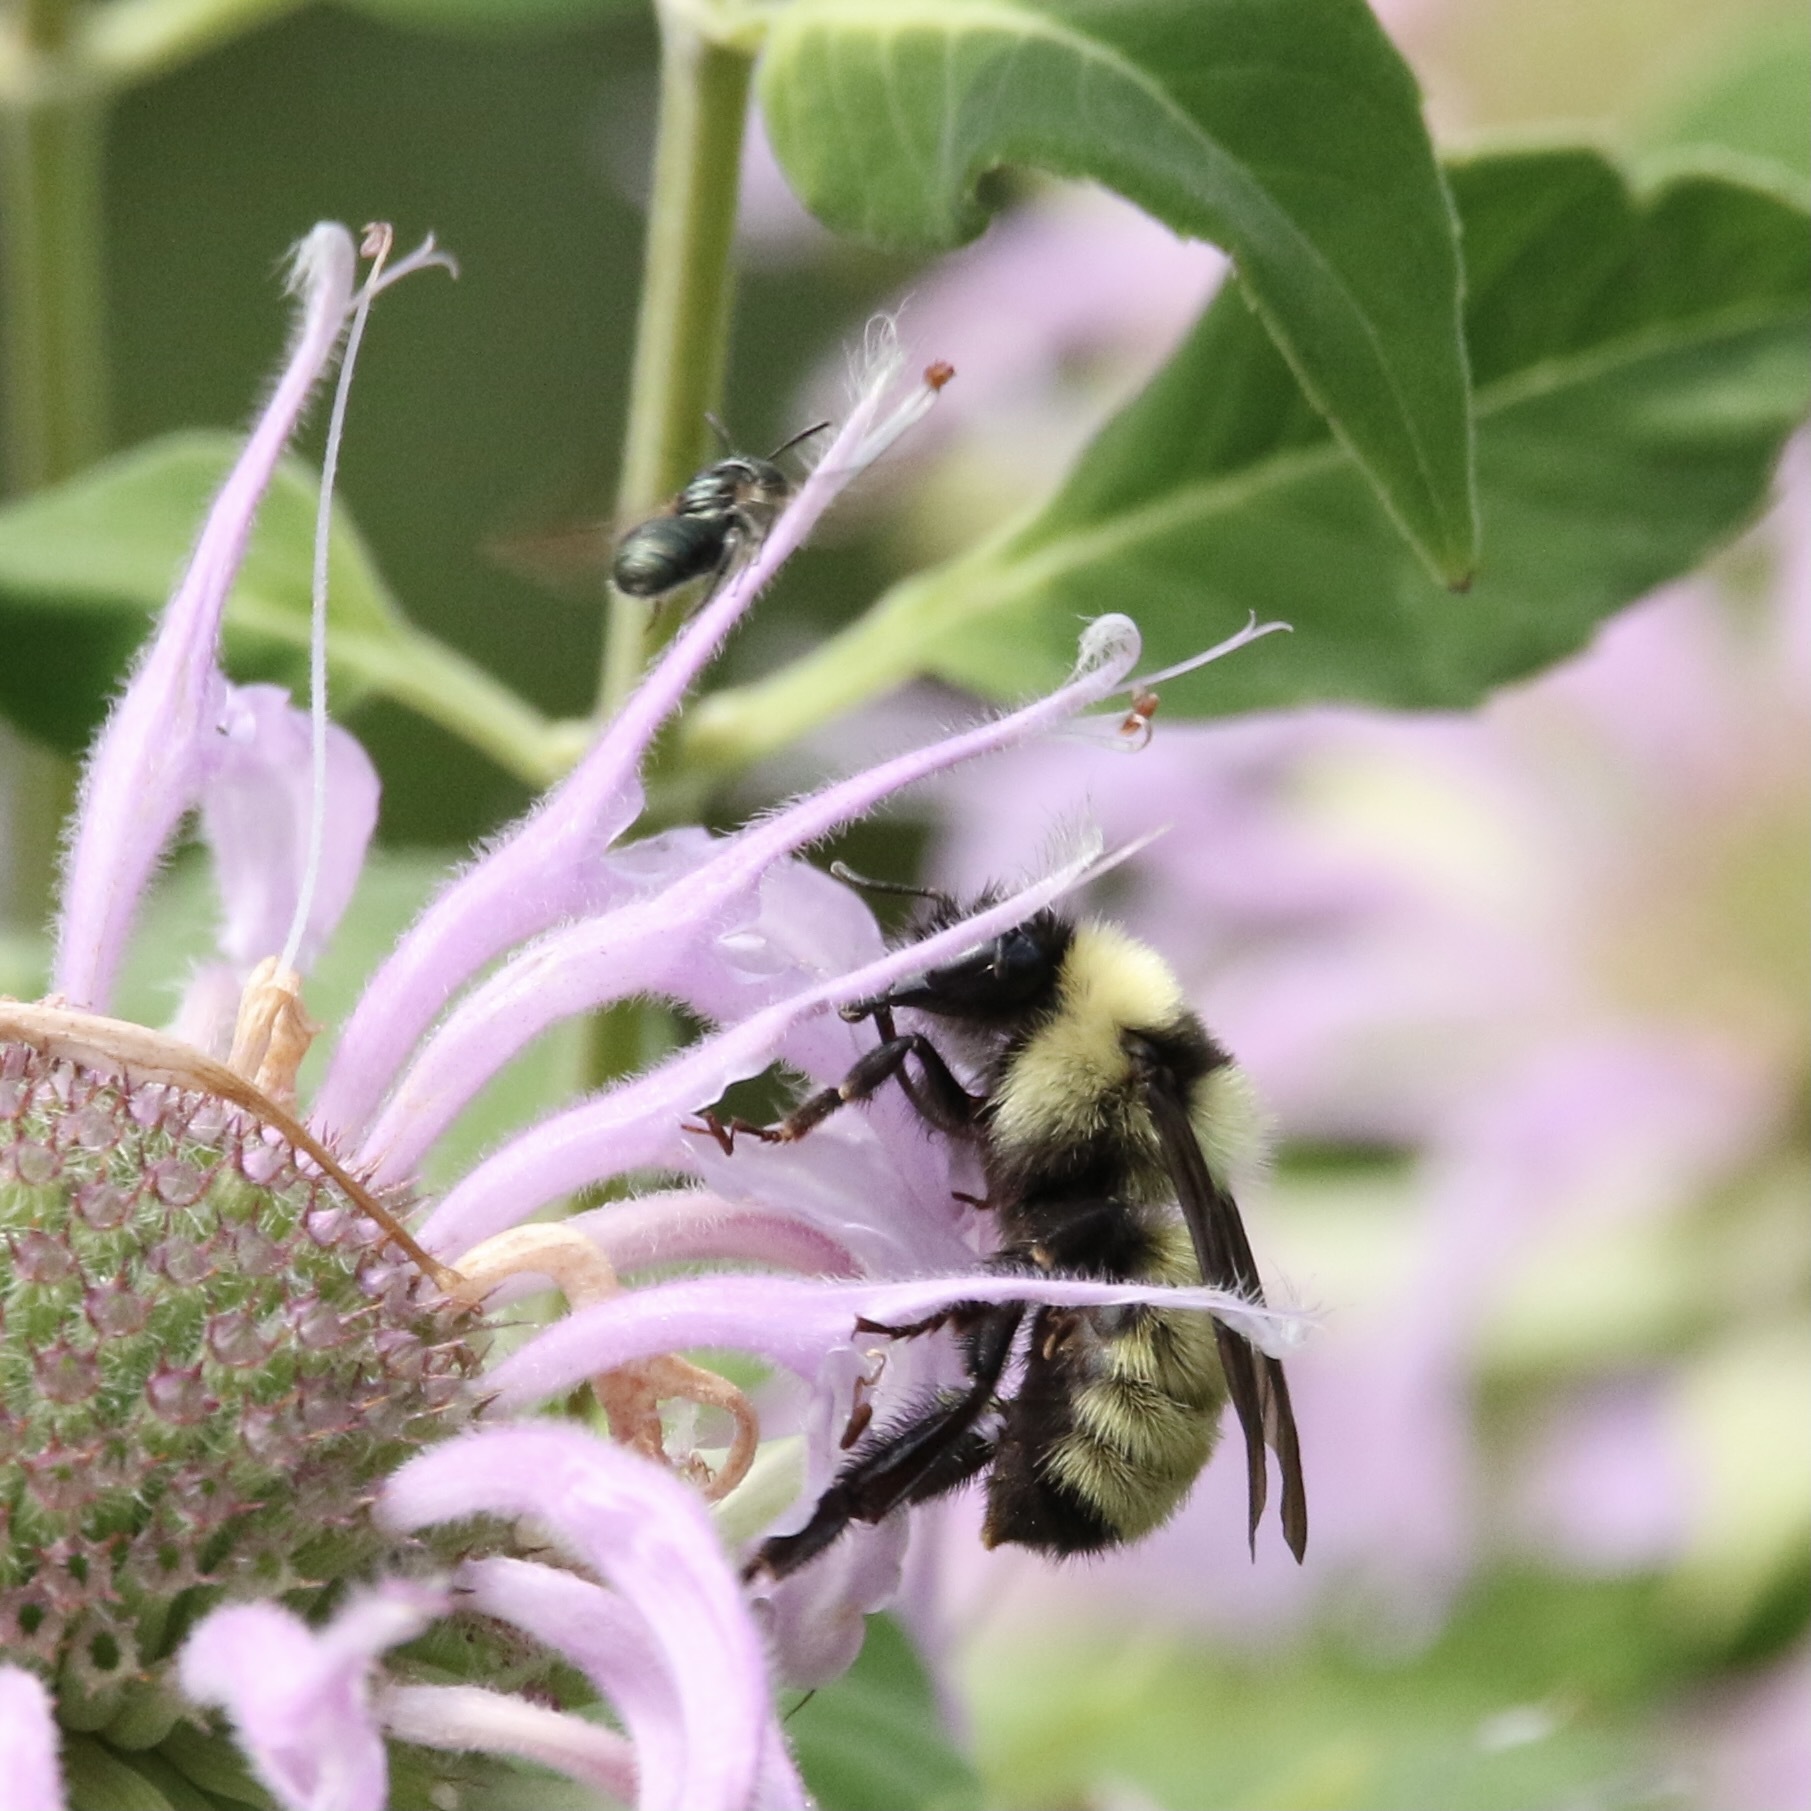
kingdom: Animalia
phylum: Arthropoda
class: Insecta
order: Hymenoptera
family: Apidae
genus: Ceratina
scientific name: Ceratina calcarata
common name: Spurred carpenter bee
